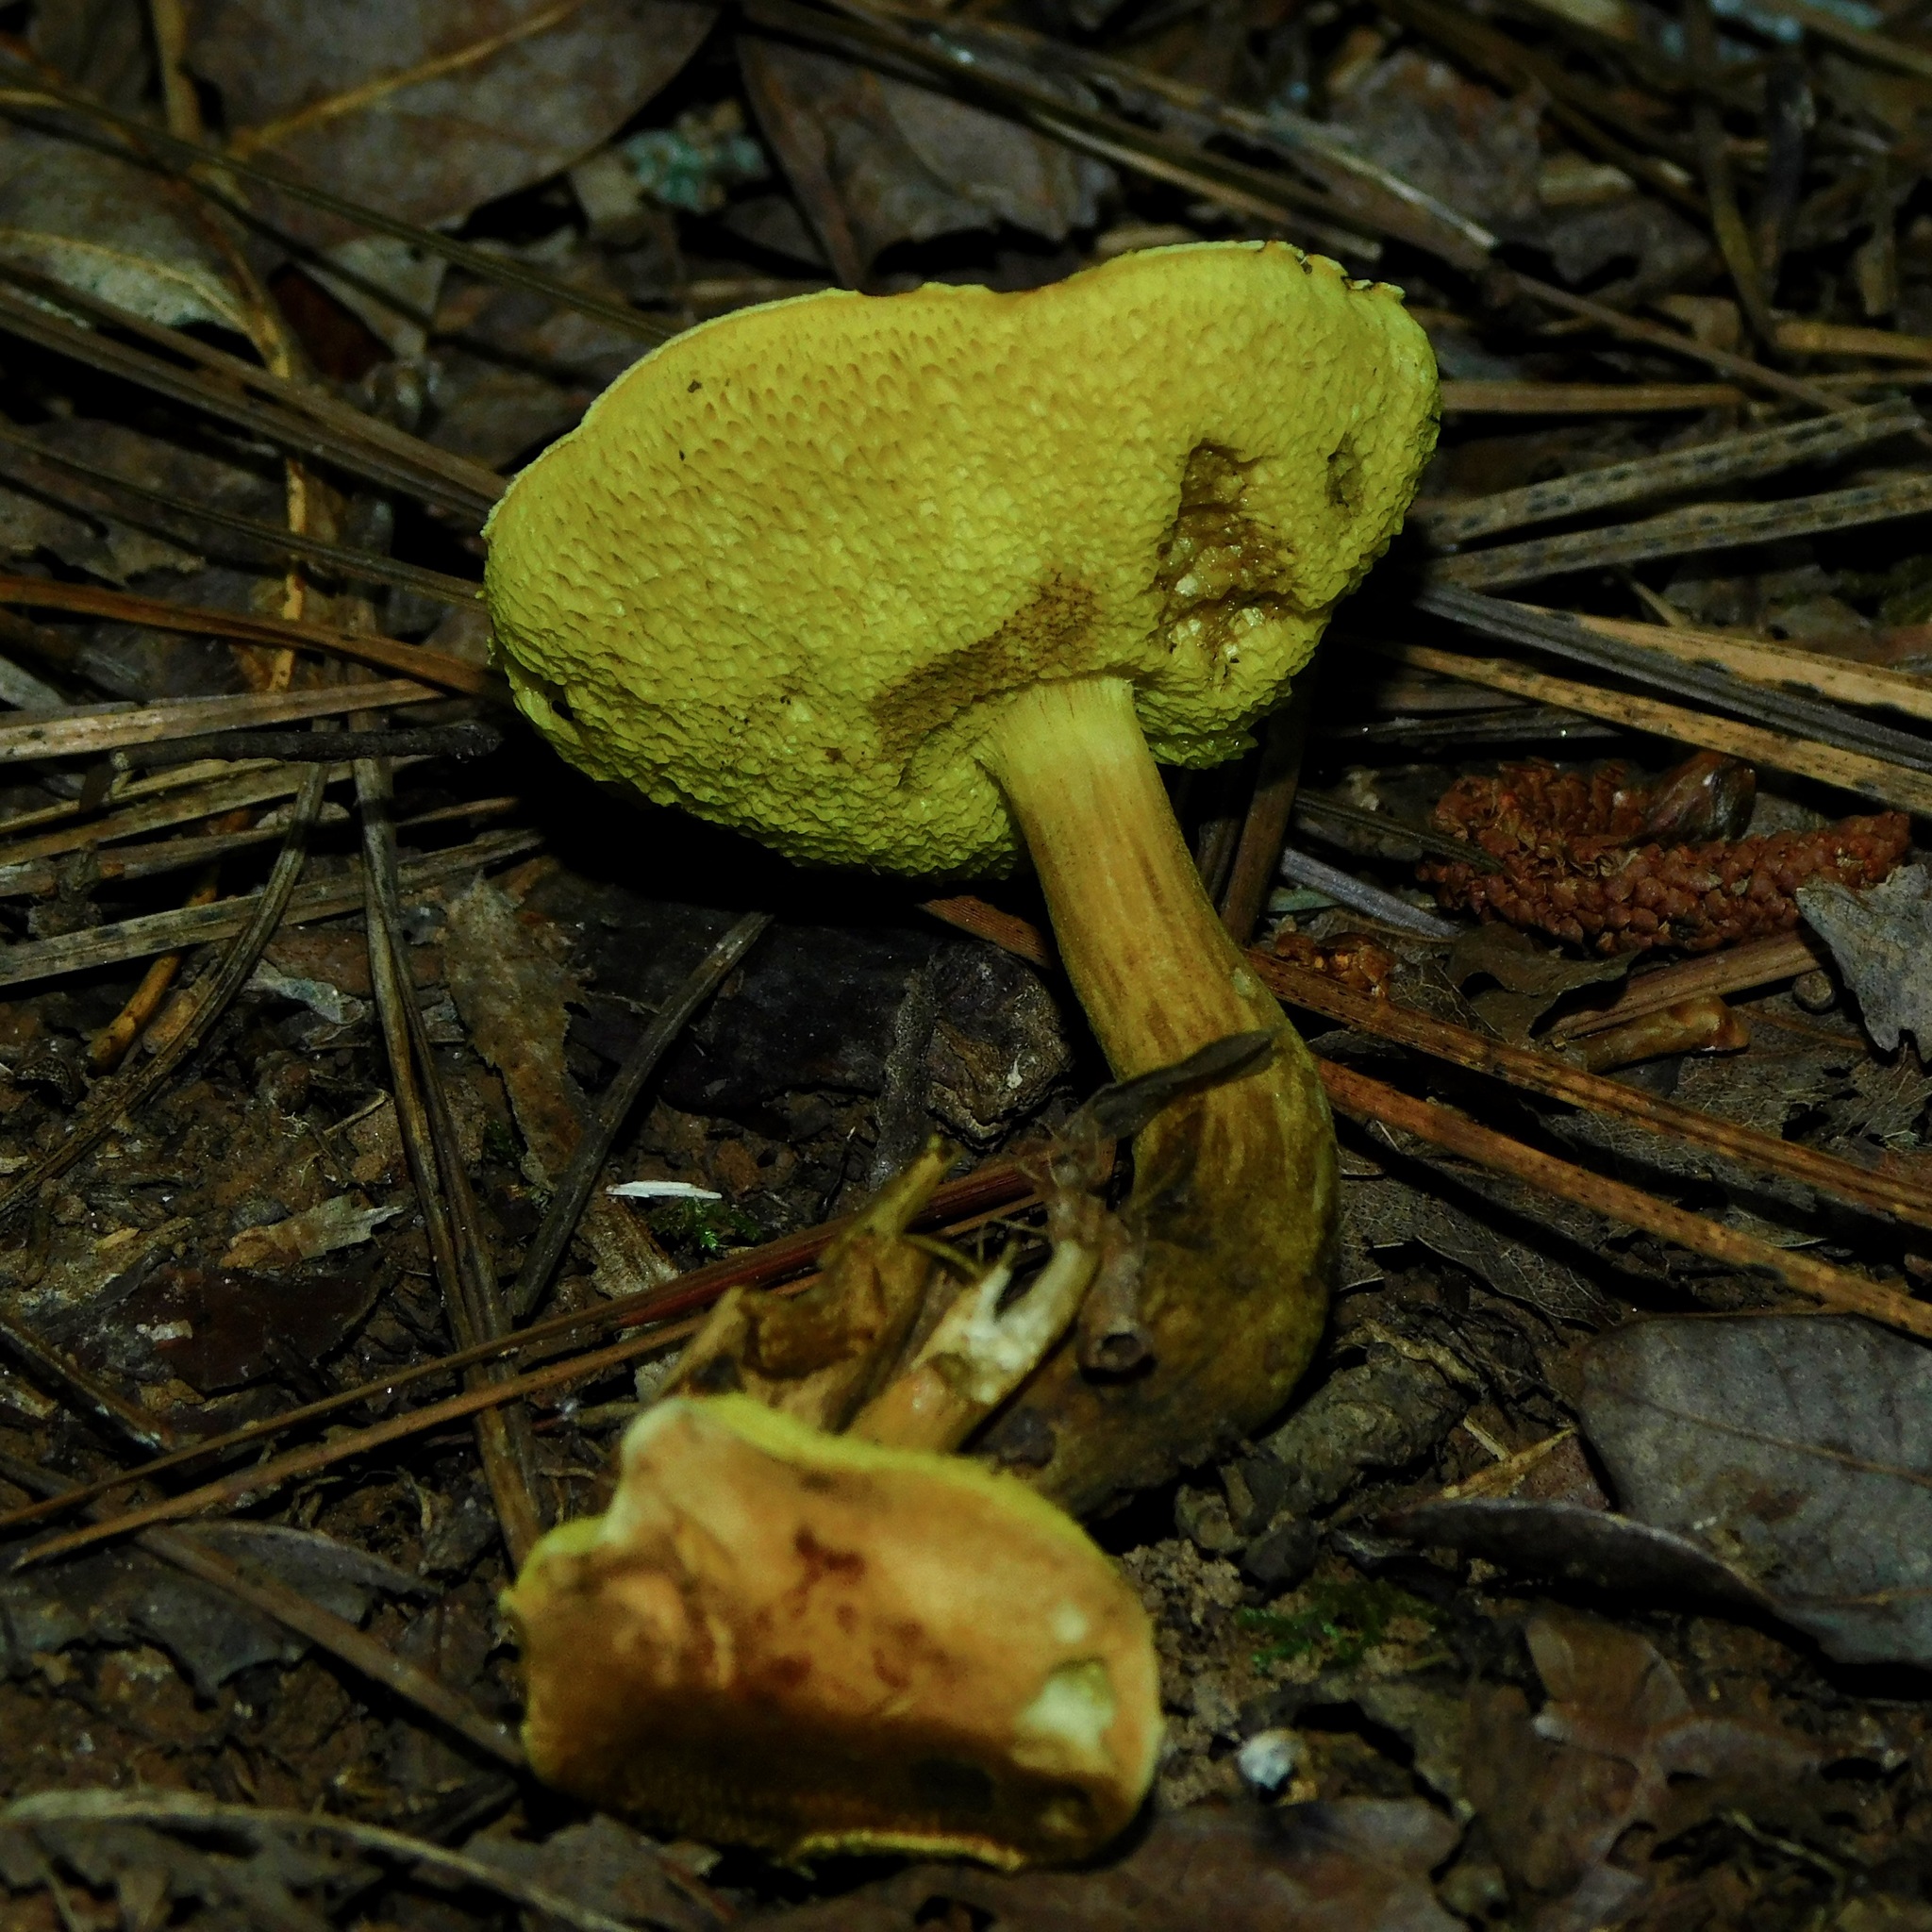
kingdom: Fungi
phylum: Basidiomycota
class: Agaricomycetes
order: Boletales
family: Boletaceae
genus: Xerocomus
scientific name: Xerocomus subtomentosus
